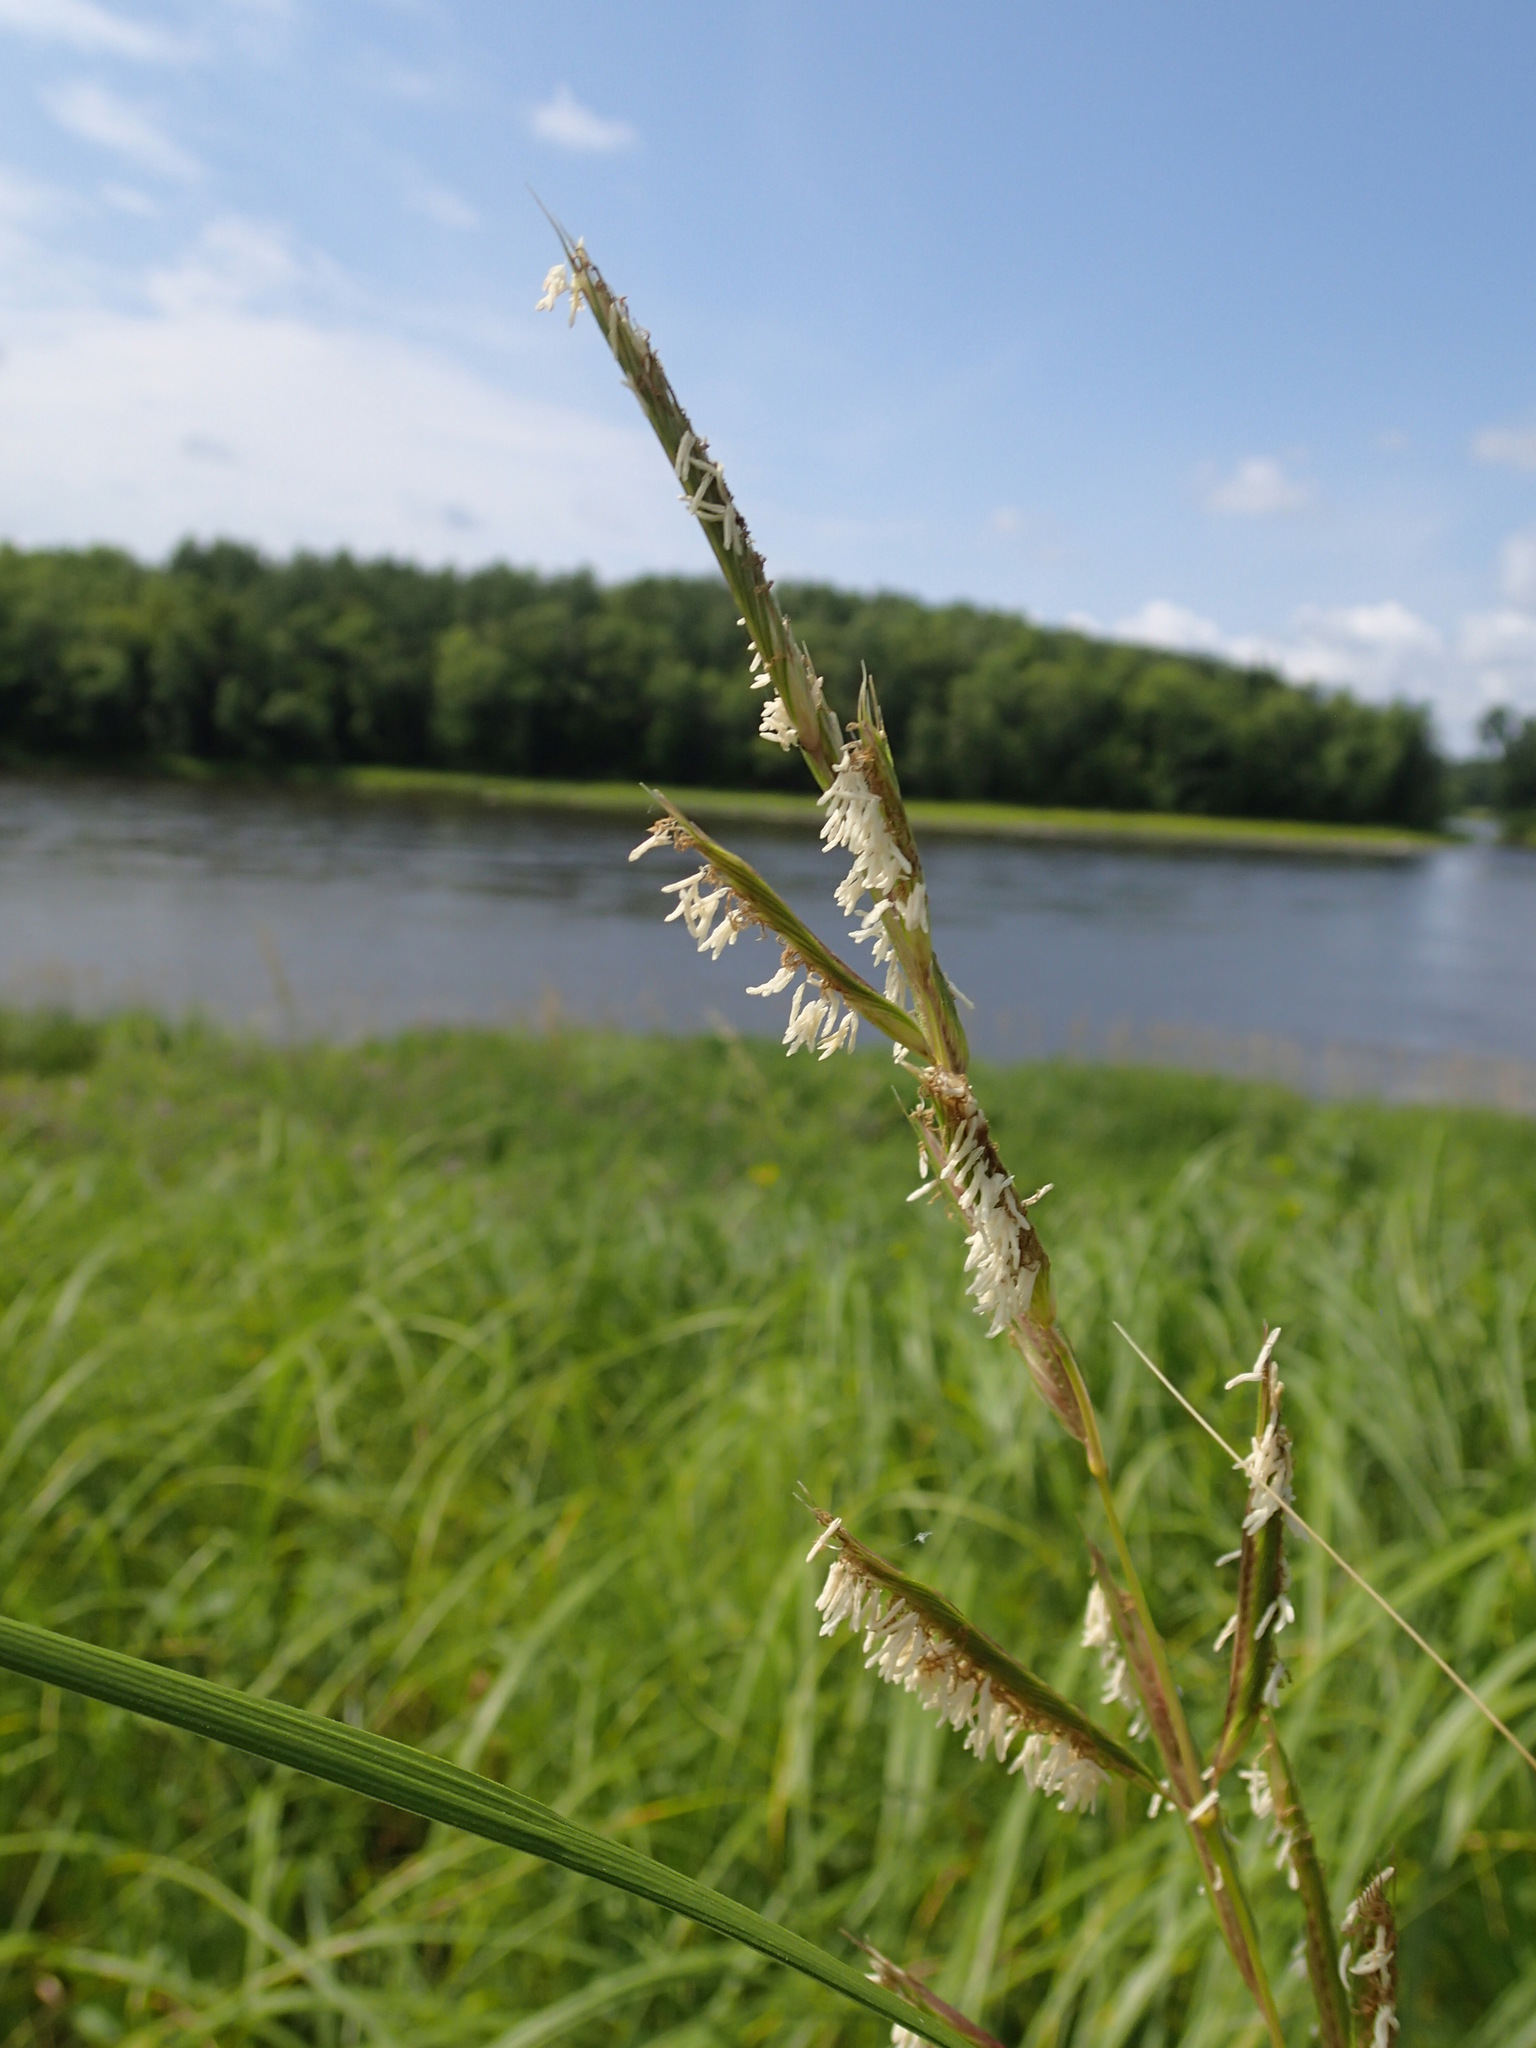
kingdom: Plantae
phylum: Tracheophyta
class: Liliopsida
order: Poales
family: Poaceae
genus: Sporobolus
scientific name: Sporobolus michauxianus
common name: Freshwater cordgrass
